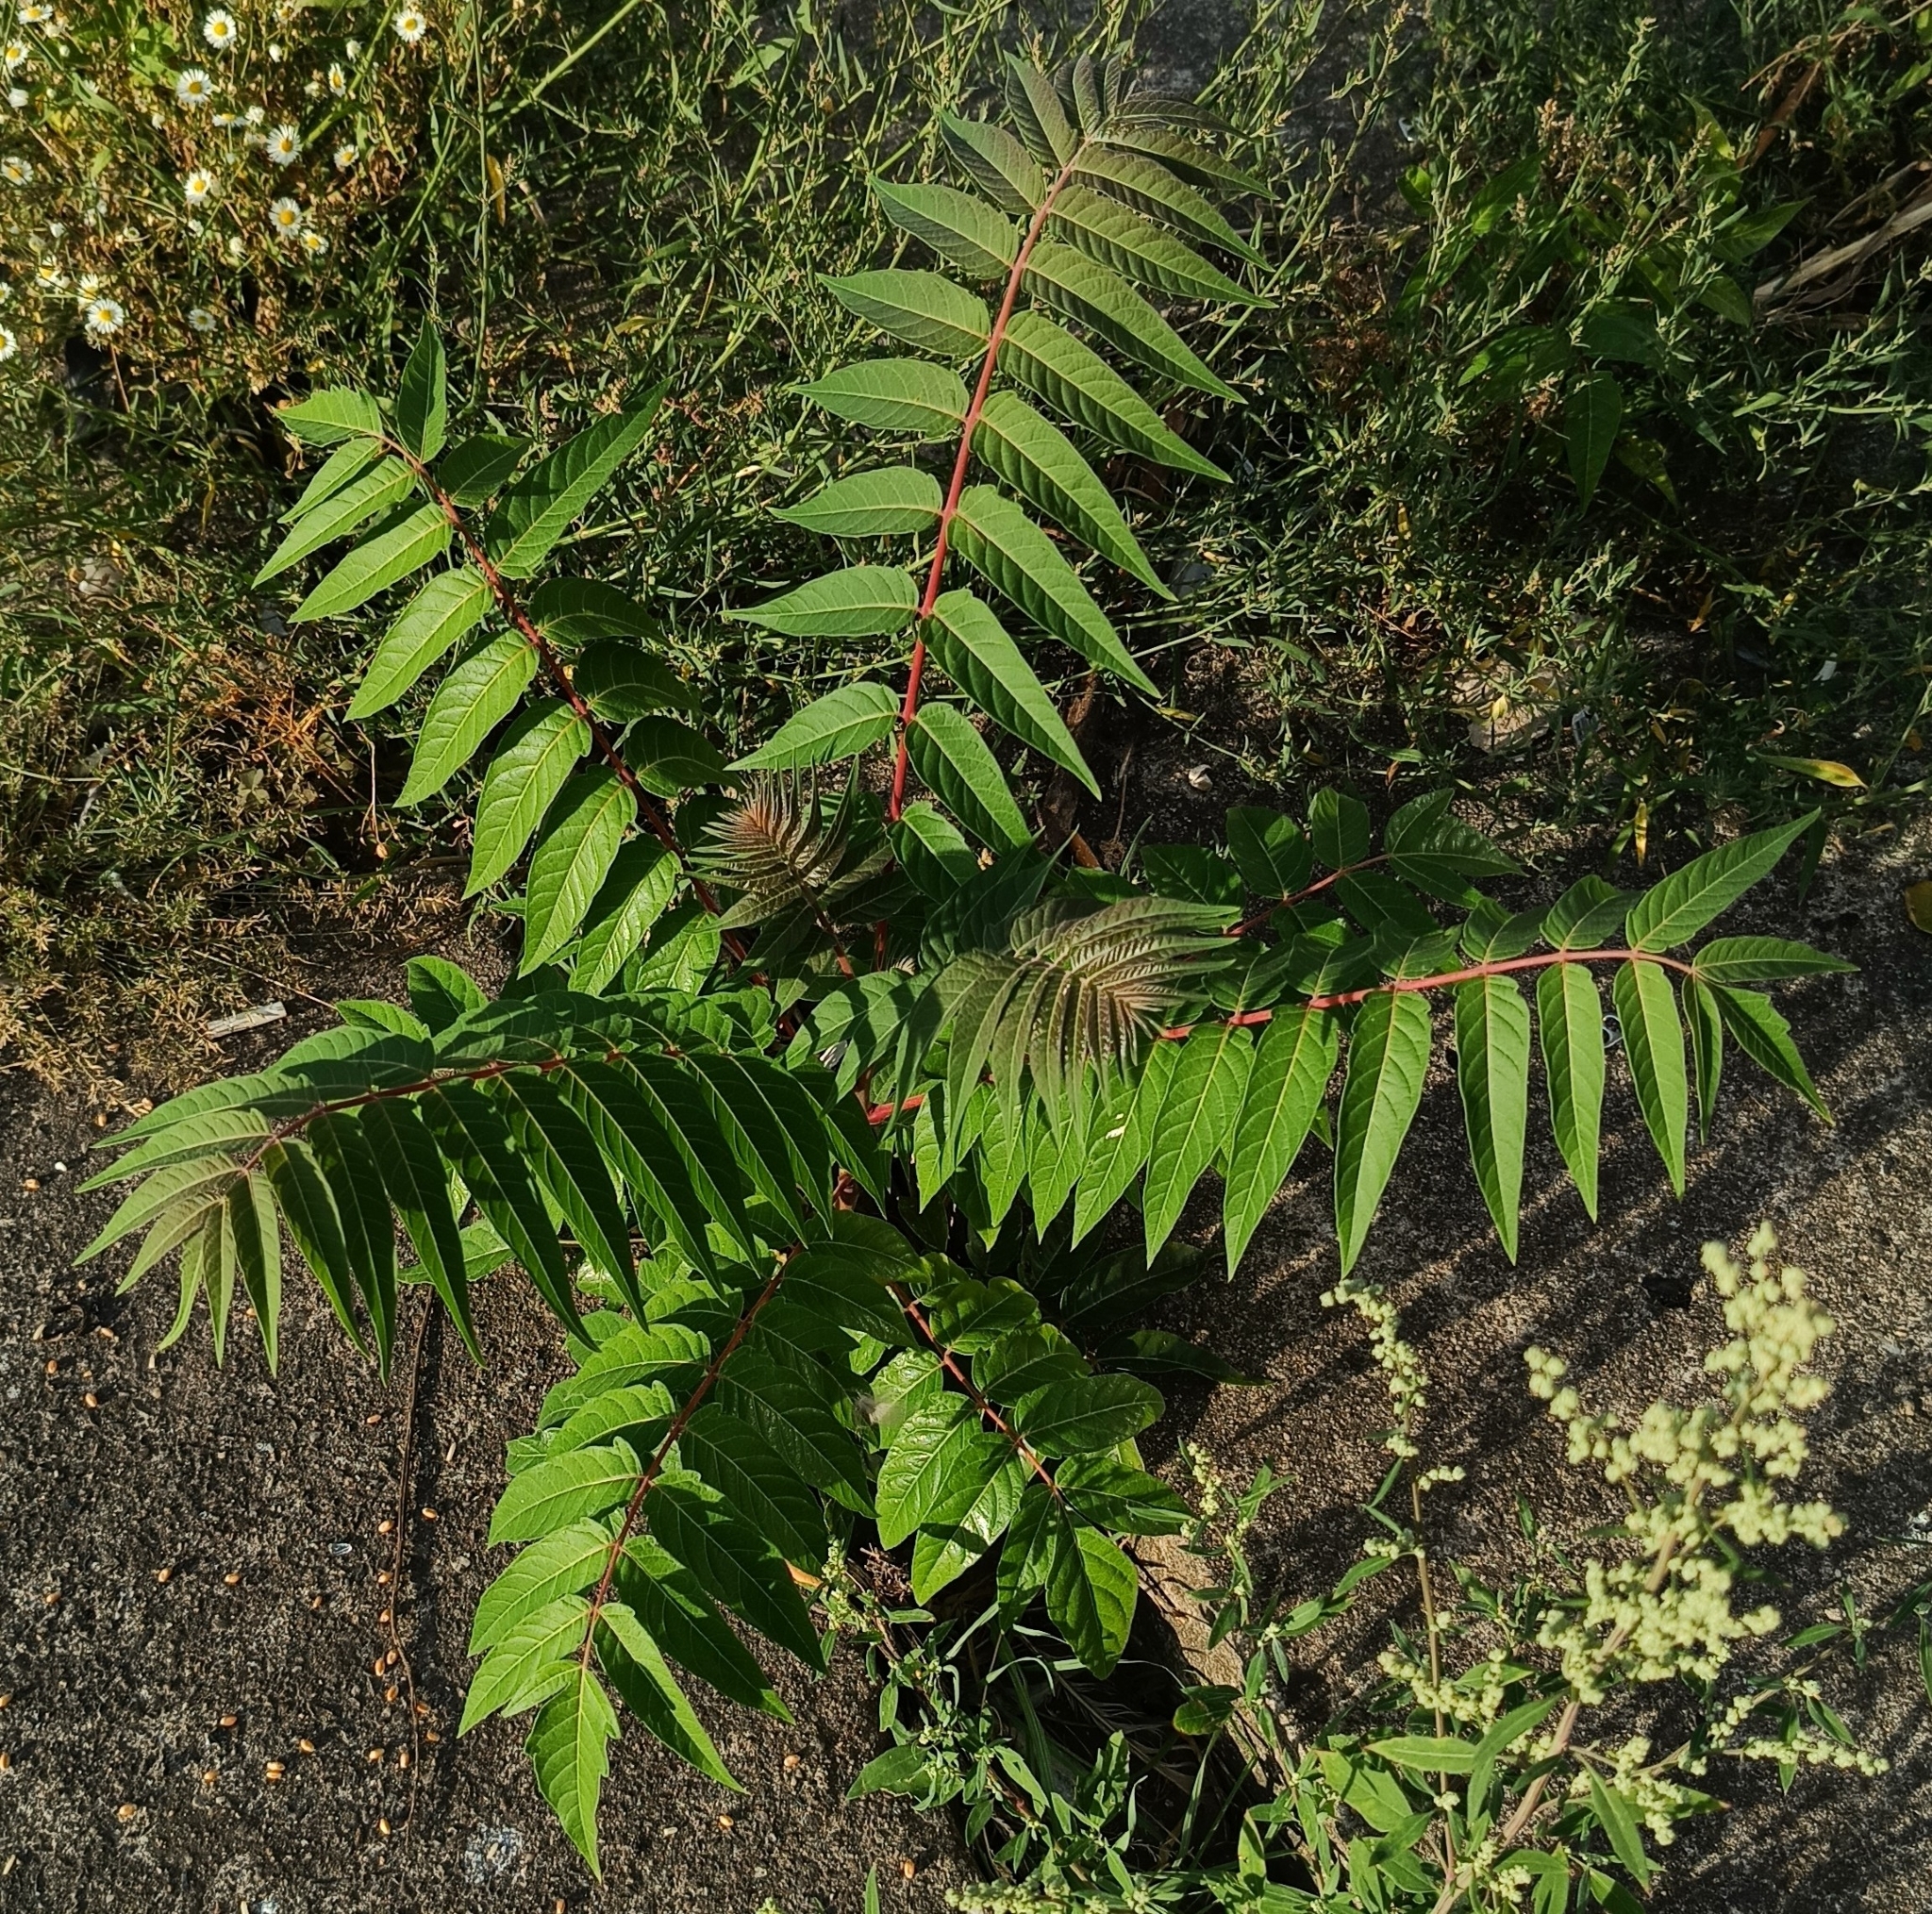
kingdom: Plantae
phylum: Tracheophyta
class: Magnoliopsida
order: Sapindales
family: Simaroubaceae
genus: Ailanthus
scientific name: Ailanthus altissima
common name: Tree-of-heaven
